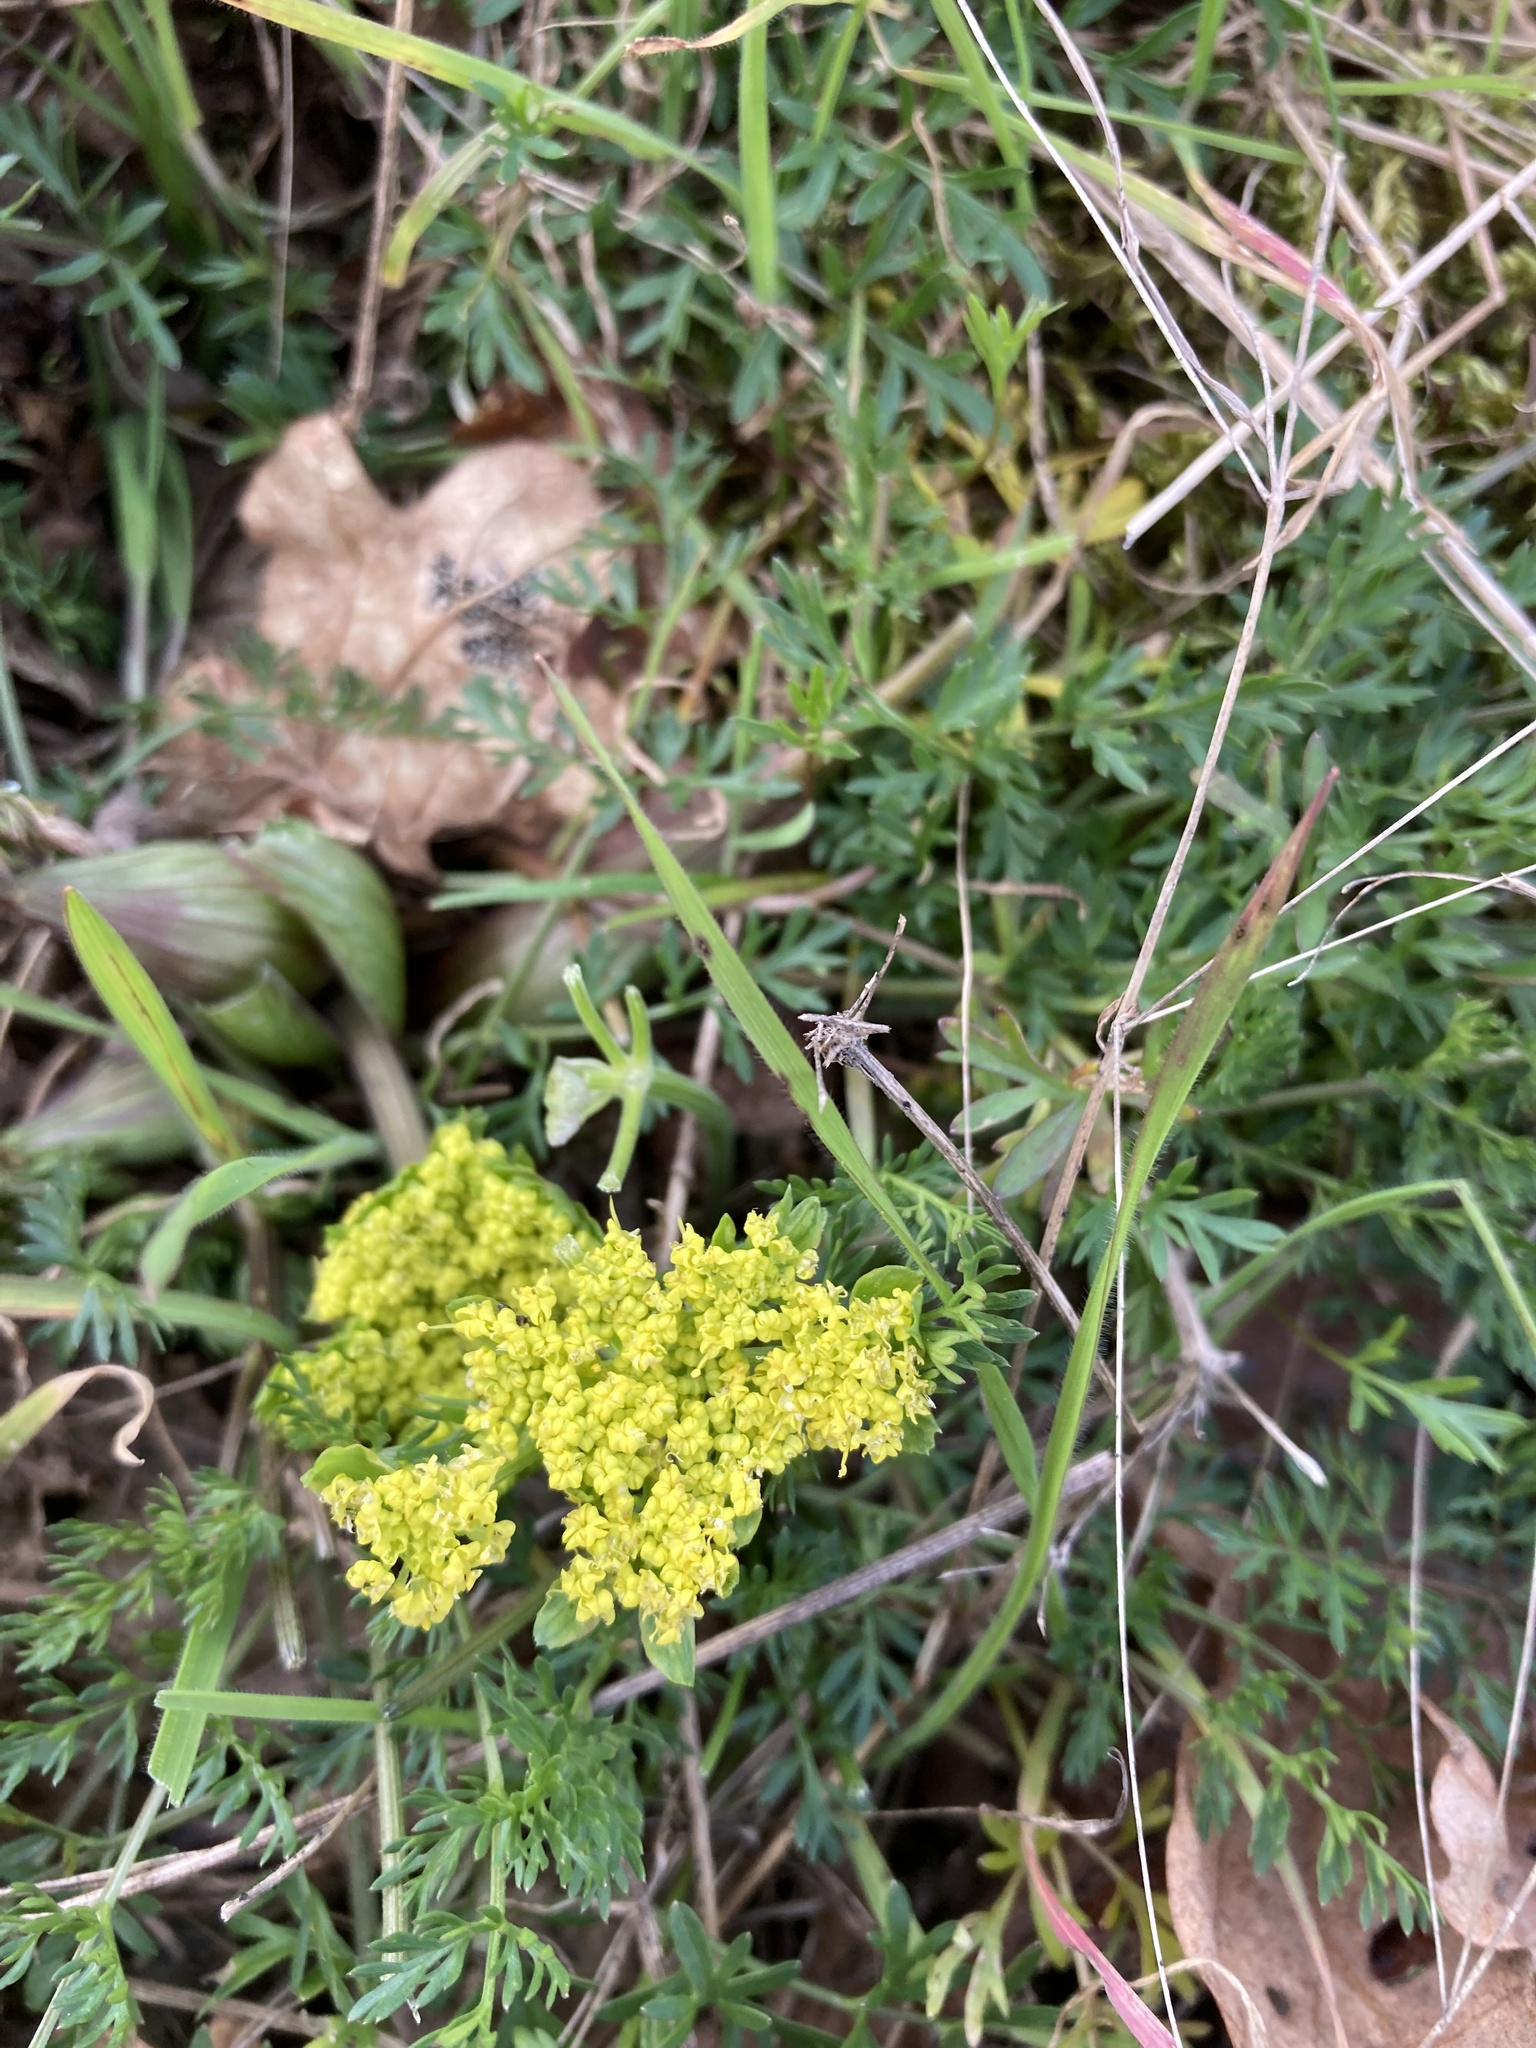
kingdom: Plantae
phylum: Tracheophyta
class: Magnoliopsida
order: Apiales
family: Apiaceae
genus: Lomatium
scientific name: Lomatium utriculatum
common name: Fine-leaf desert-parsley
